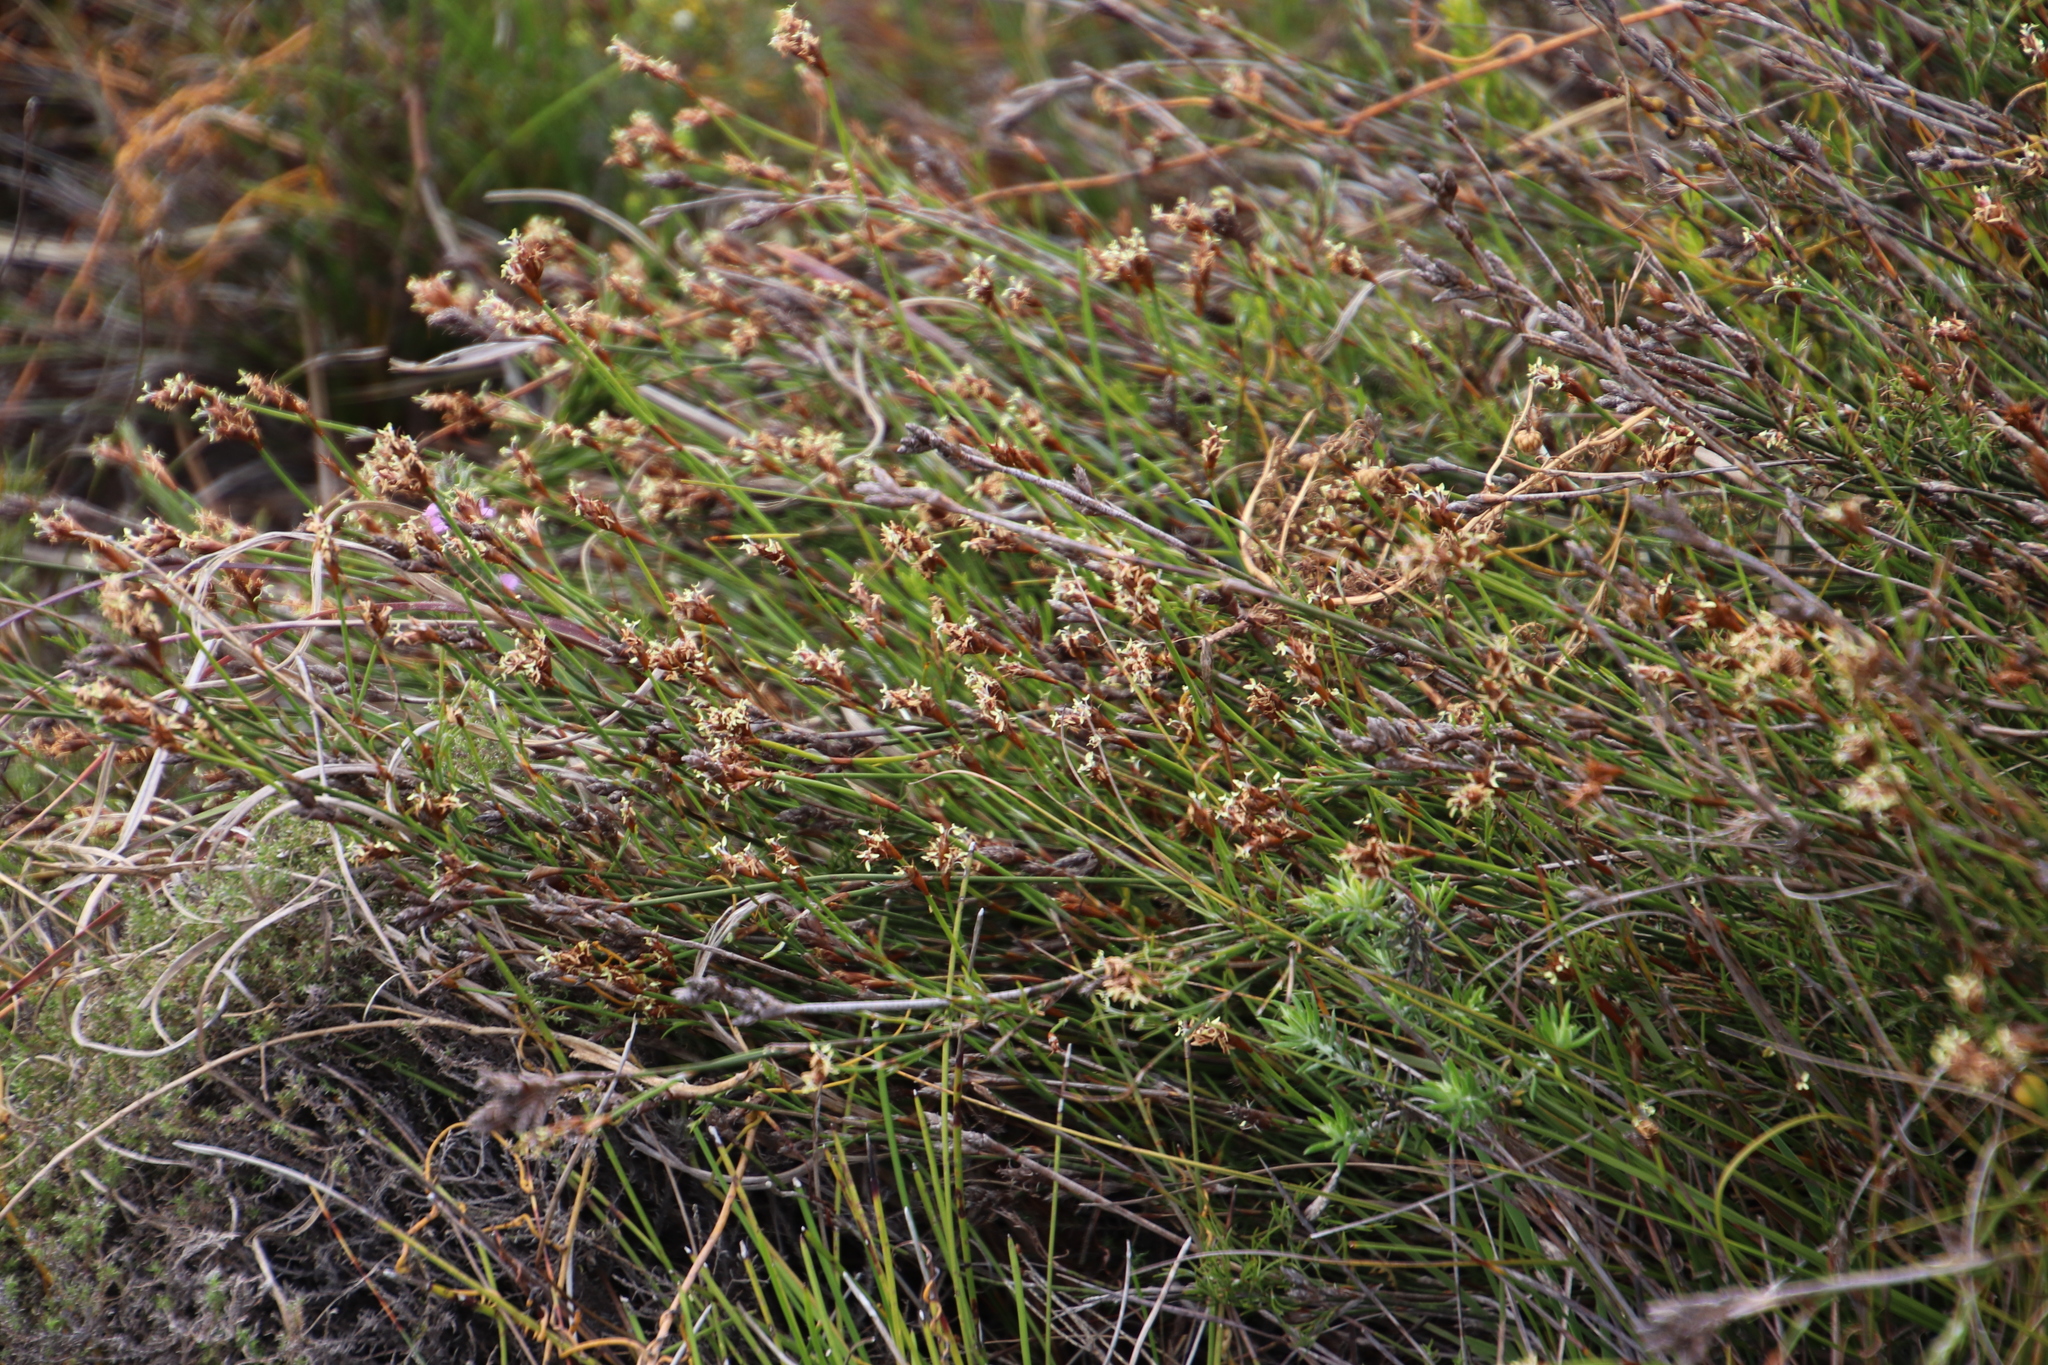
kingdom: Plantae
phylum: Tracheophyta
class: Liliopsida
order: Poales
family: Restionaceae
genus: Restio
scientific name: Restio capensis
